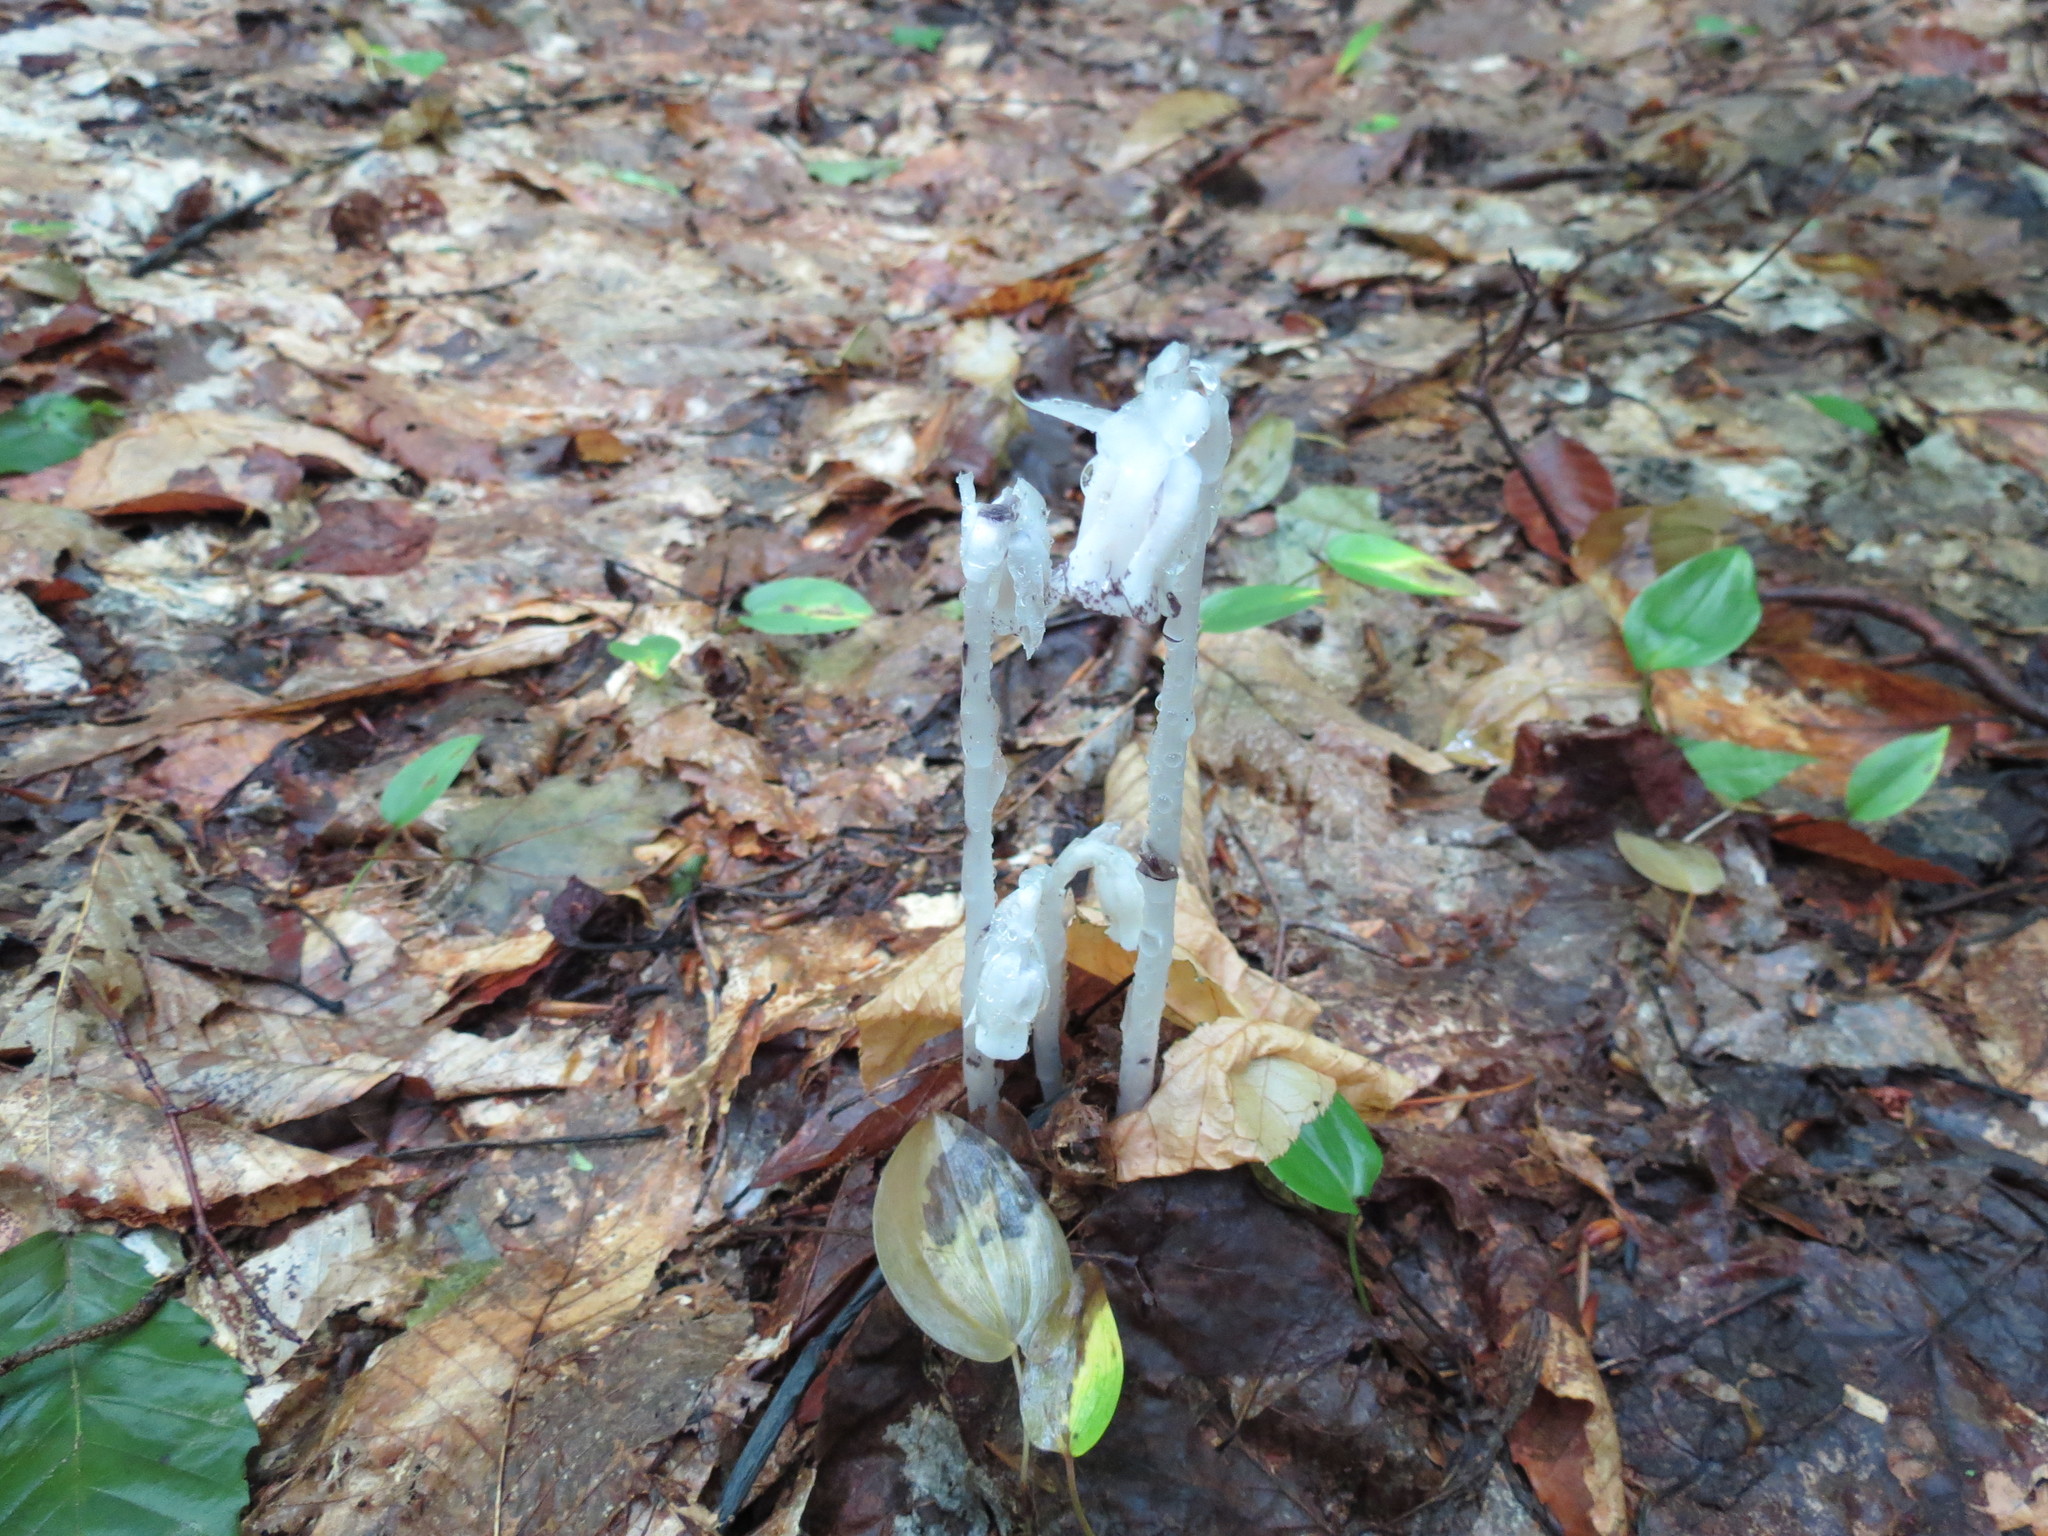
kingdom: Plantae
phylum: Tracheophyta
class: Magnoliopsida
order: Ericales
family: Ericaceae
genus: Monotropa
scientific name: Monotropa uniflora
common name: Convulsion root
